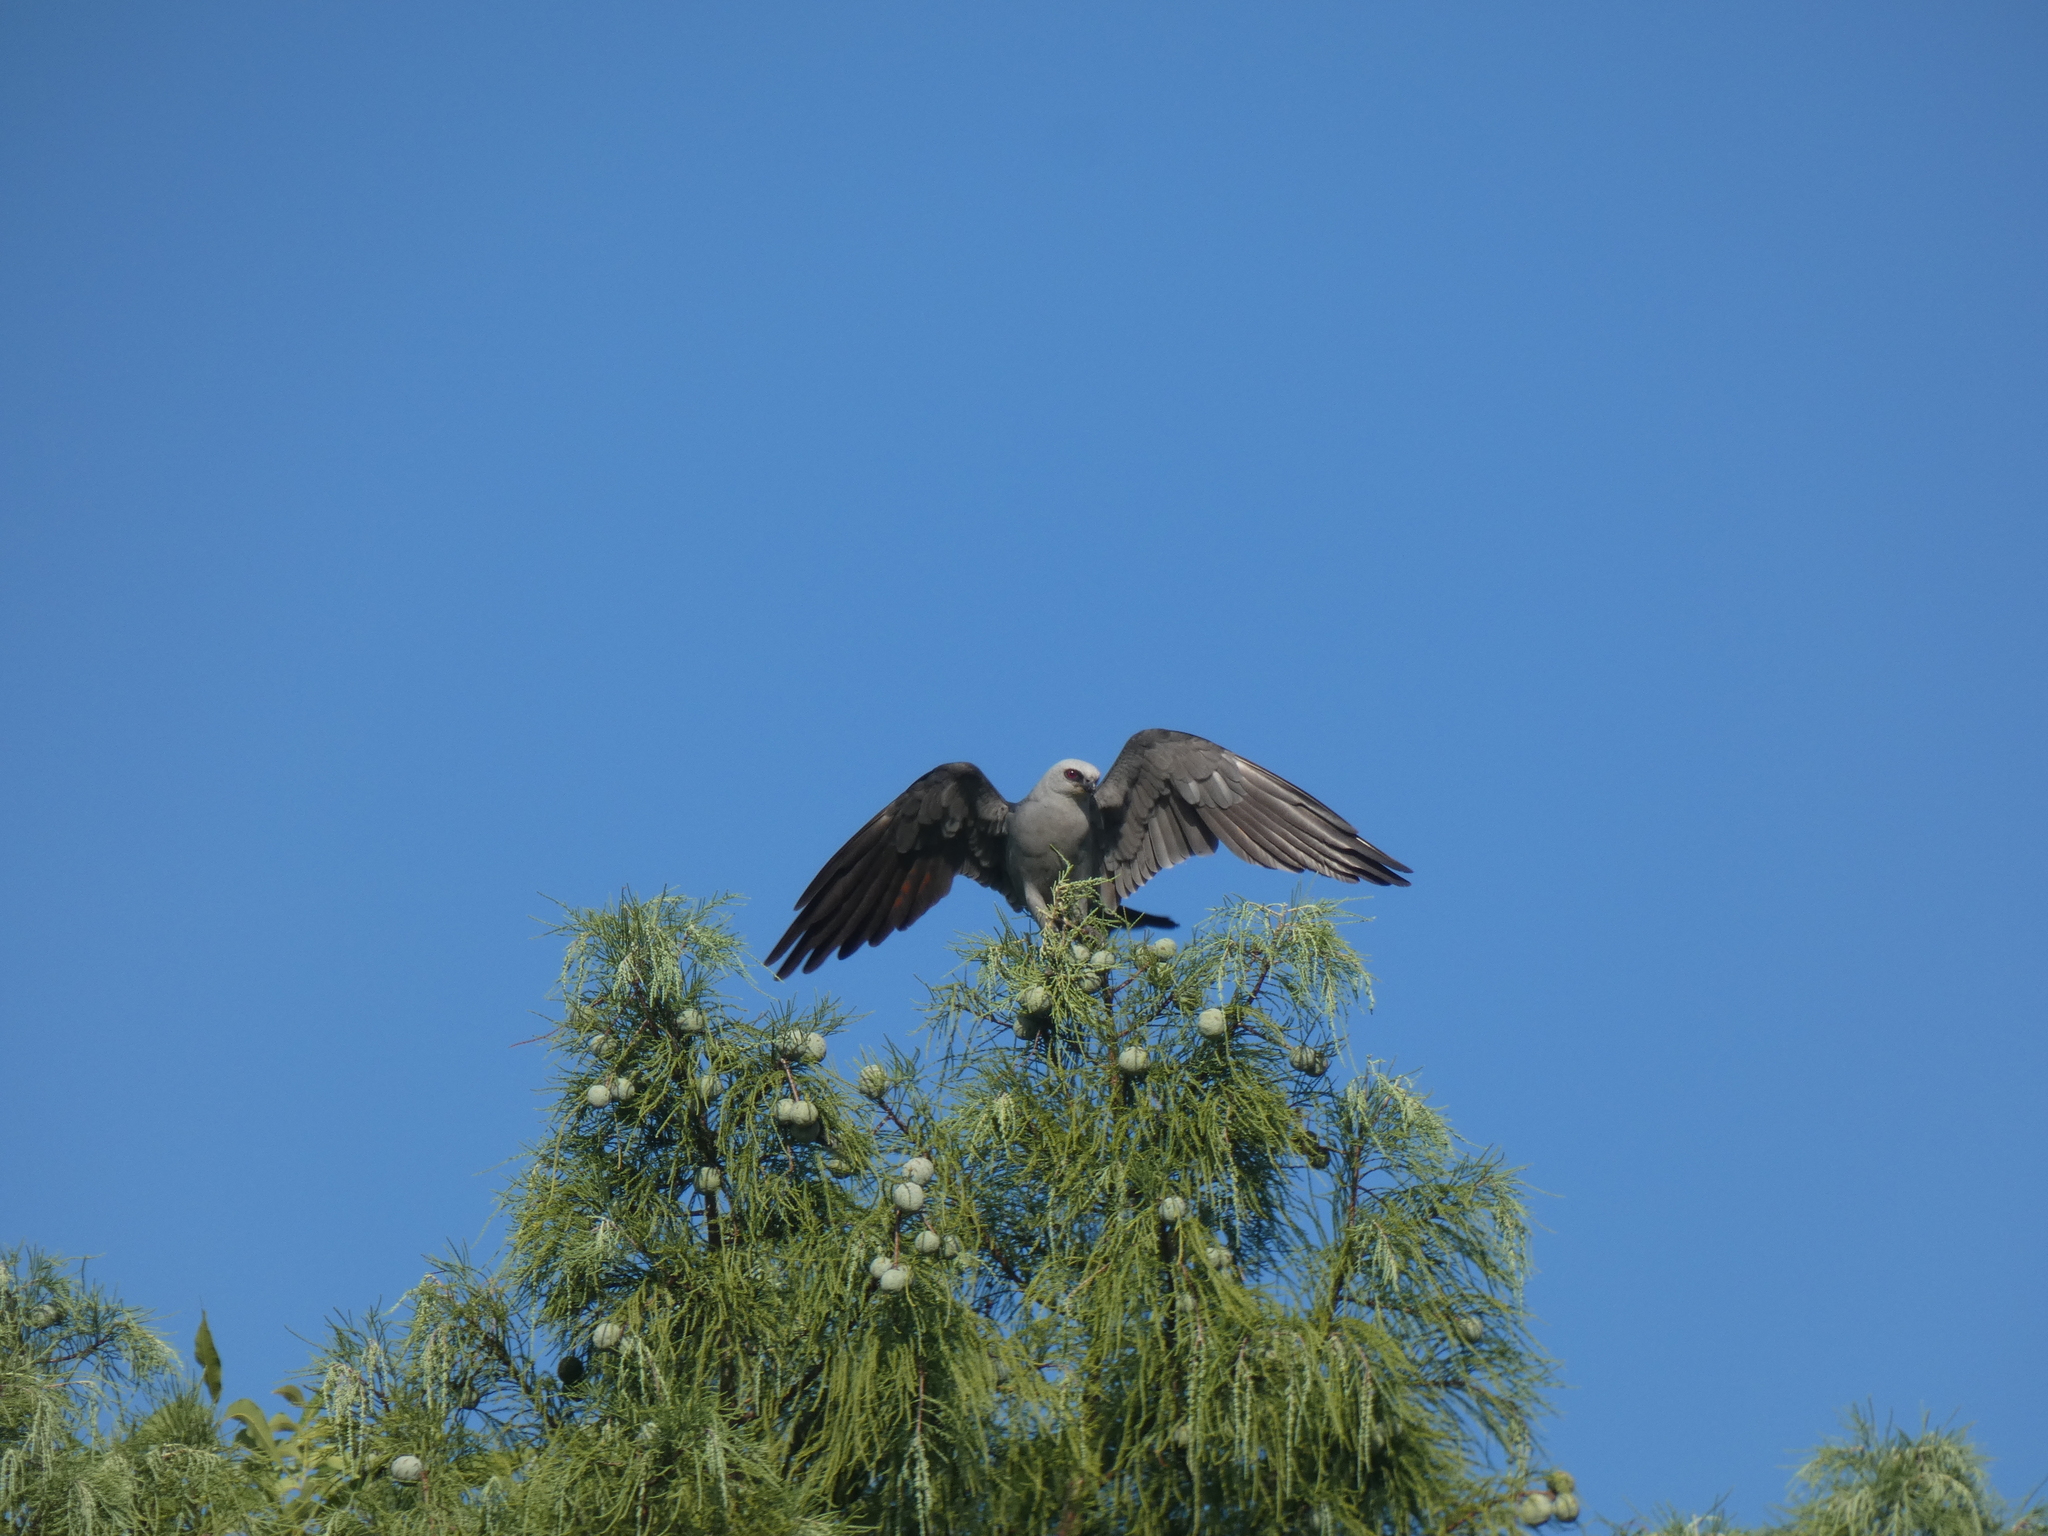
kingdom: Animalia
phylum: Chordata
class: Aves
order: Accipitriformes
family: Accipitridae
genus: Ictinia
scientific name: Ictinia mississippiensis
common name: Mississippi kite
